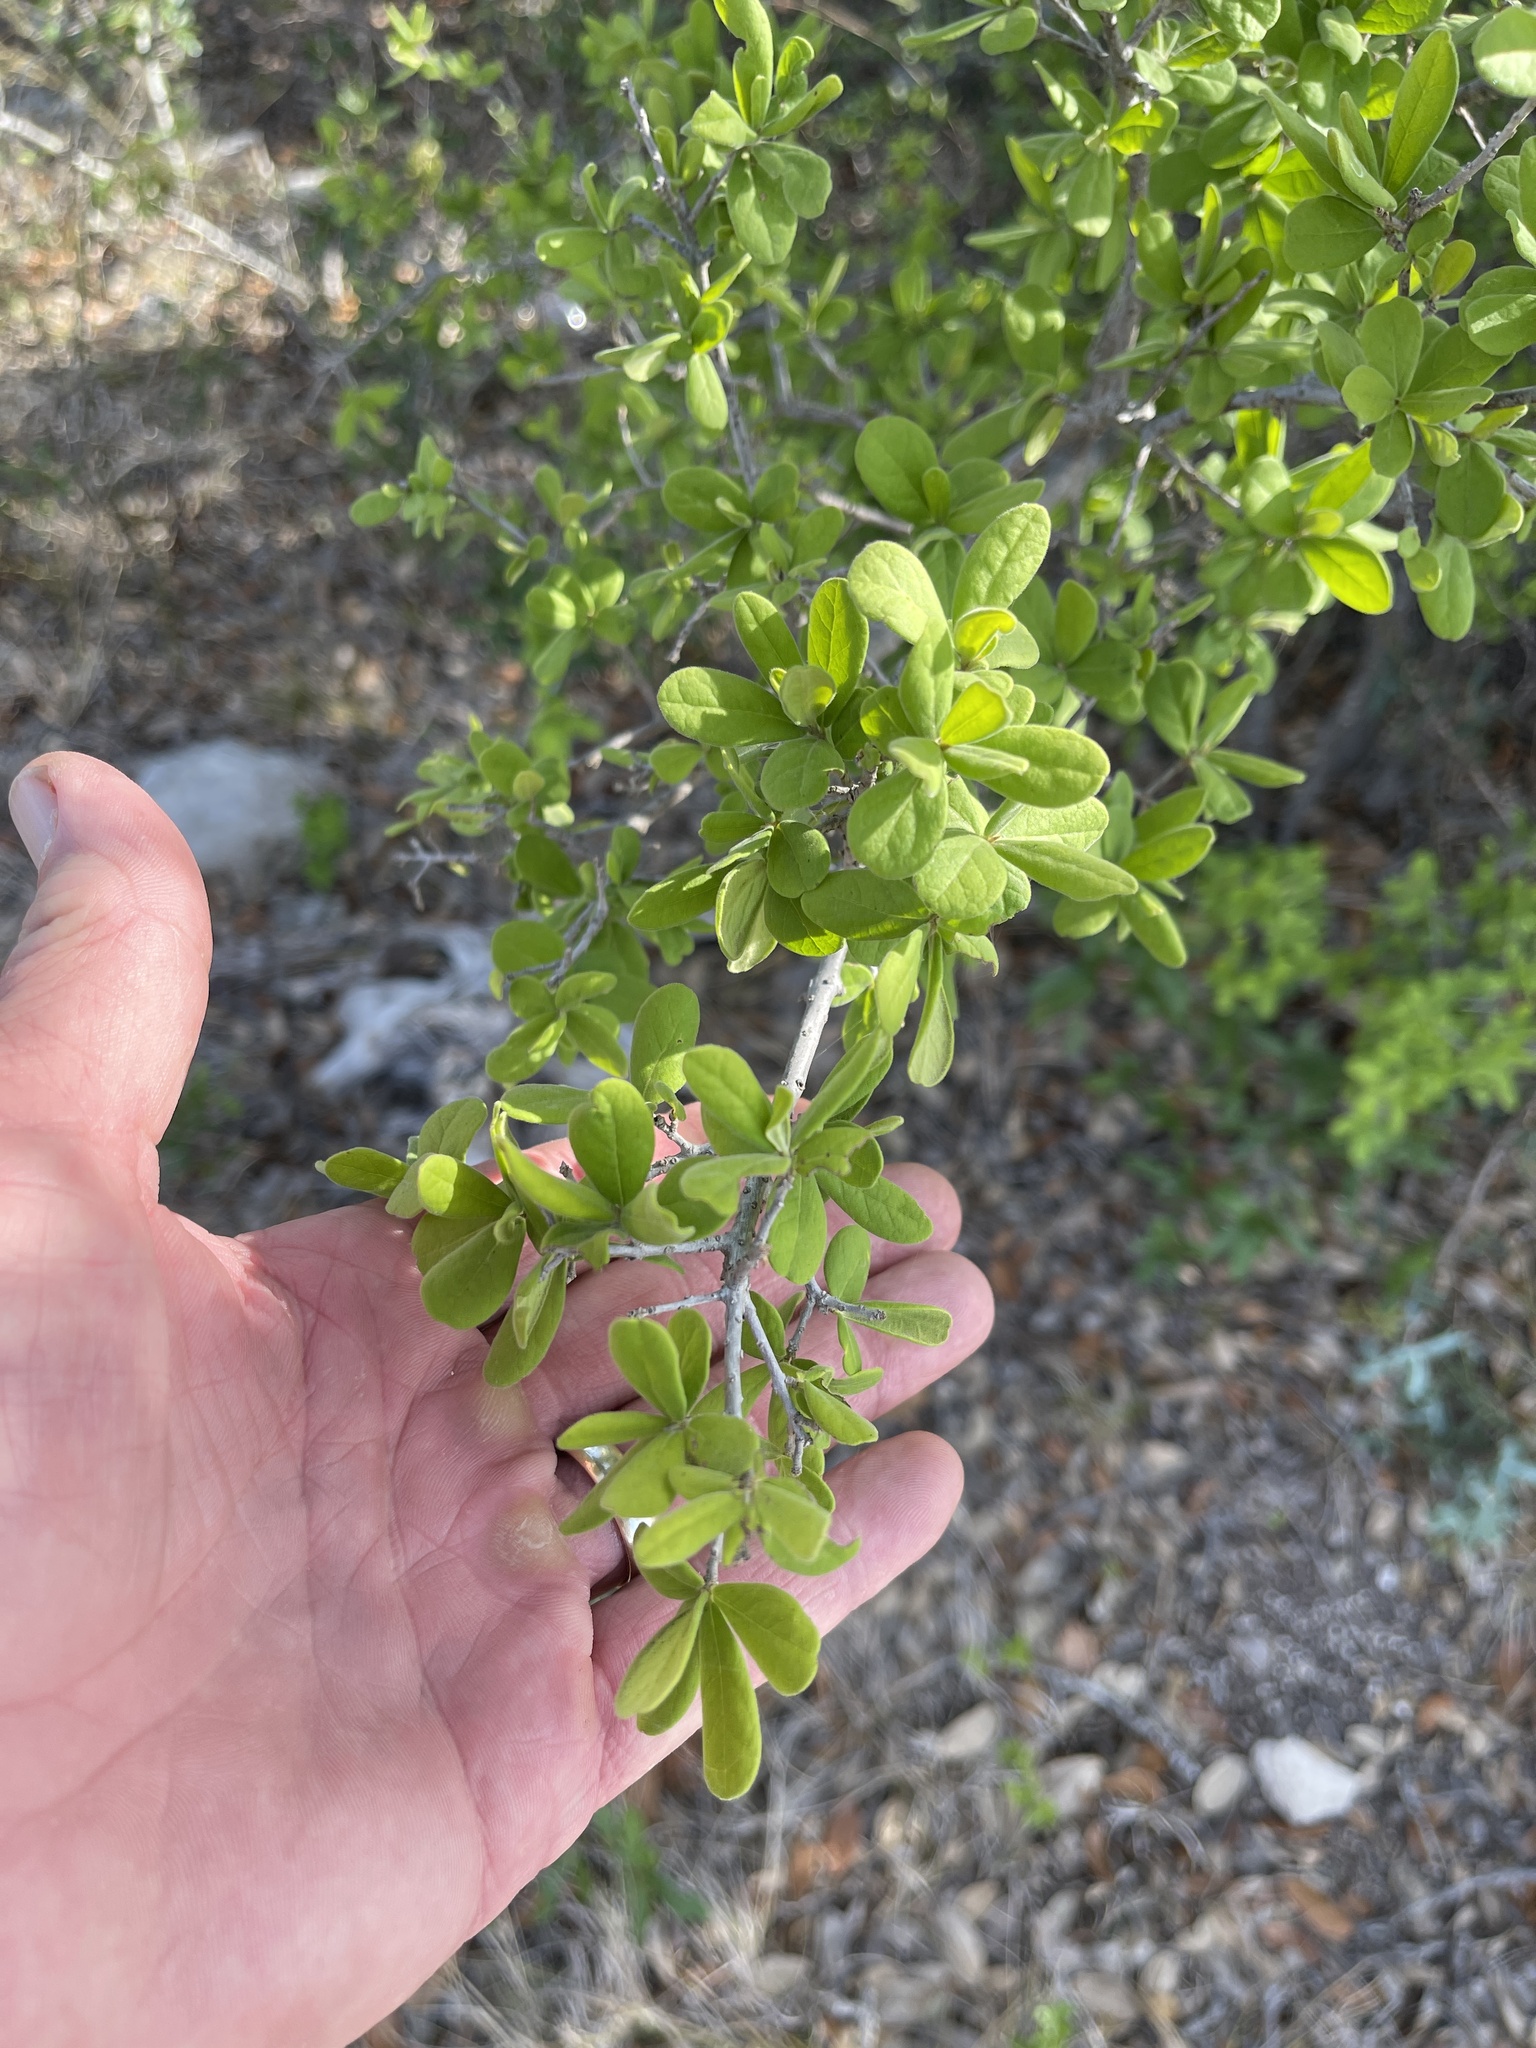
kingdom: Plantae
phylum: Tracheophyta
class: Magnoliopsida
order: Ericales
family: Ebenaceae
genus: Diospyros
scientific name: Diospyros texana
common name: Texas persimmon
